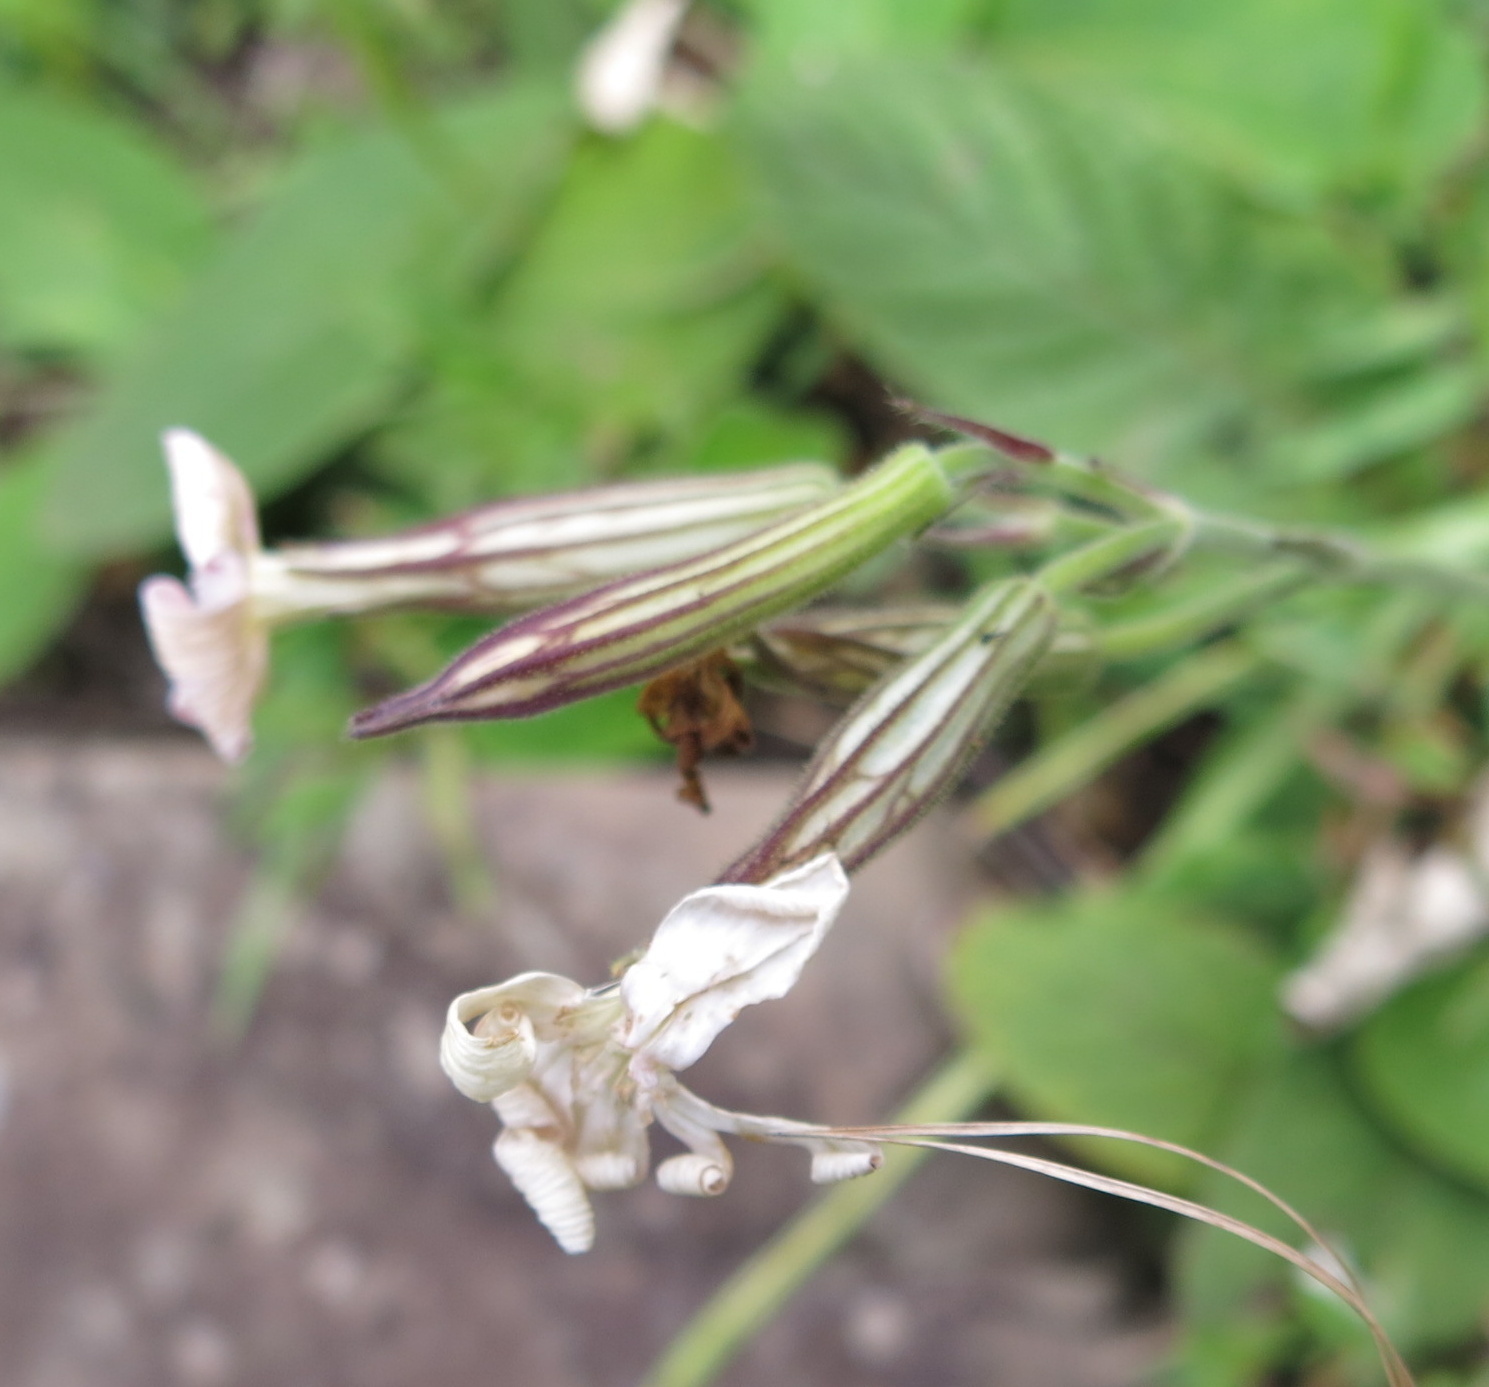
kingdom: Plantae
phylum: Tracheophyta
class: Magnoliopsida
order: Caryophyllales
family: Caryophyllaceae
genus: Silene
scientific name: Silene undulata
